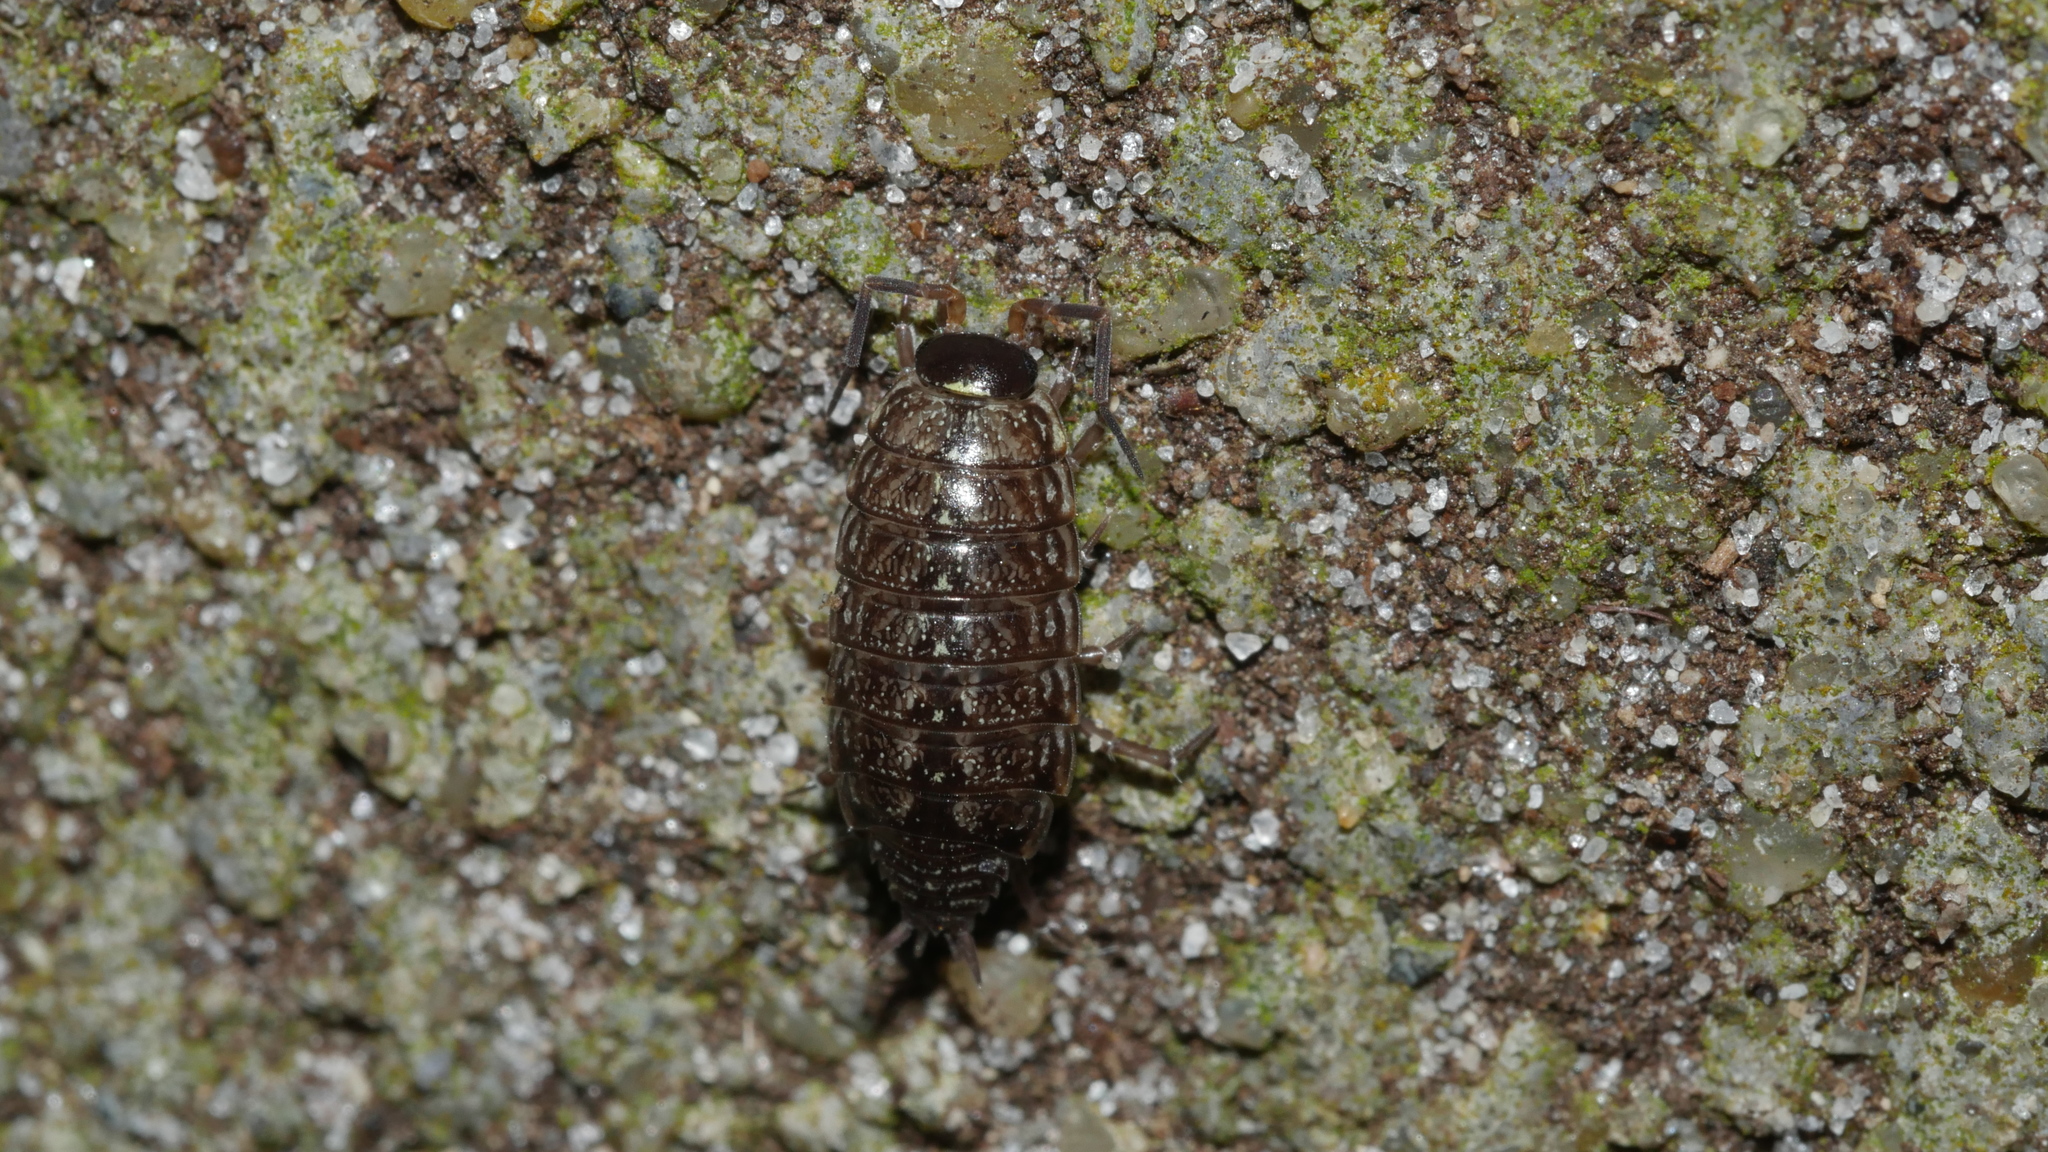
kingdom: Animalia
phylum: Arthropoda
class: Malacostraca
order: Isopoda
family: Philosciidae
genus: Philoscia
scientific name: Philoscia muscorum
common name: Common striped woodlouse
